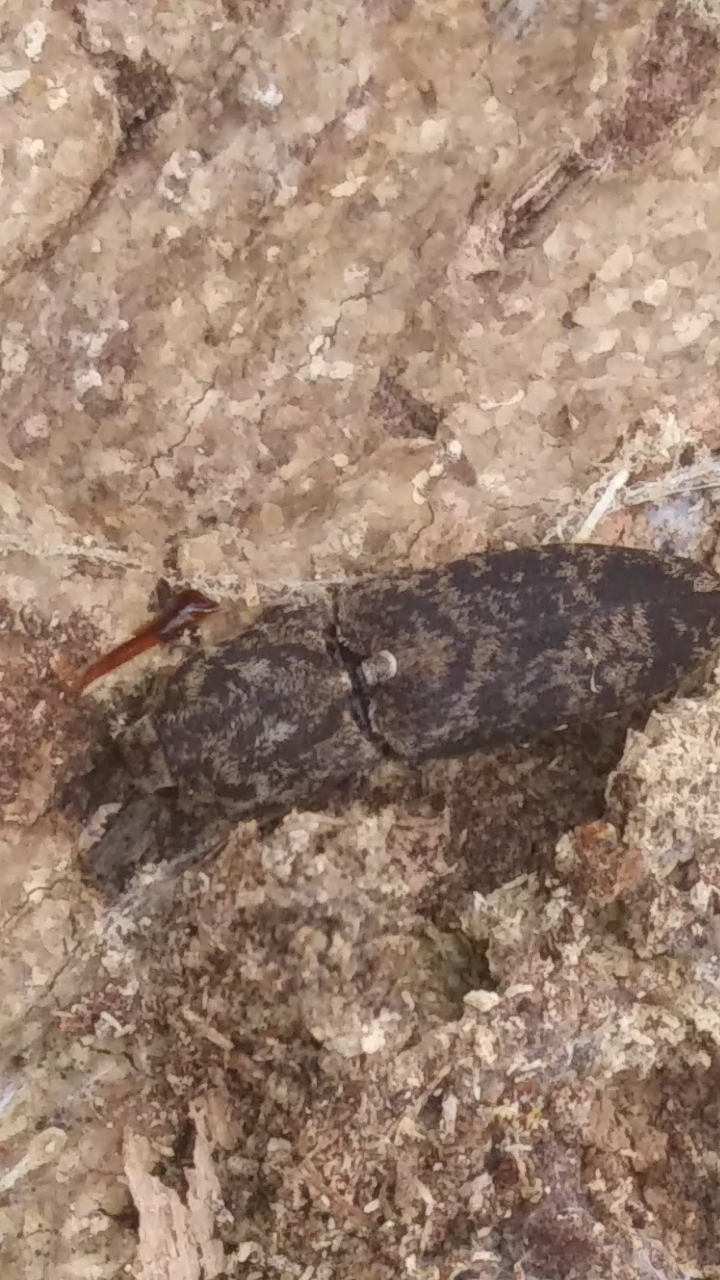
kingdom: Animalia
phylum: Arthropoda
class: Insecta
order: Coleoptera
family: Elateridae
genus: Lacon
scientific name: Lacon marmoratus
